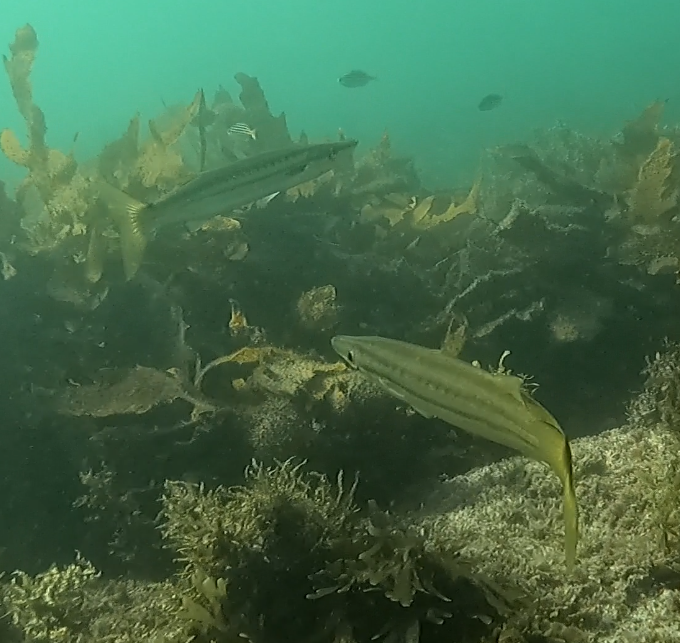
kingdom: Animalia
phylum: Chordata
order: Perciformes
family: Sphyraenidae
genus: Sphyraena
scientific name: Sphyraena obtusata
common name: Obtuse barracuda
